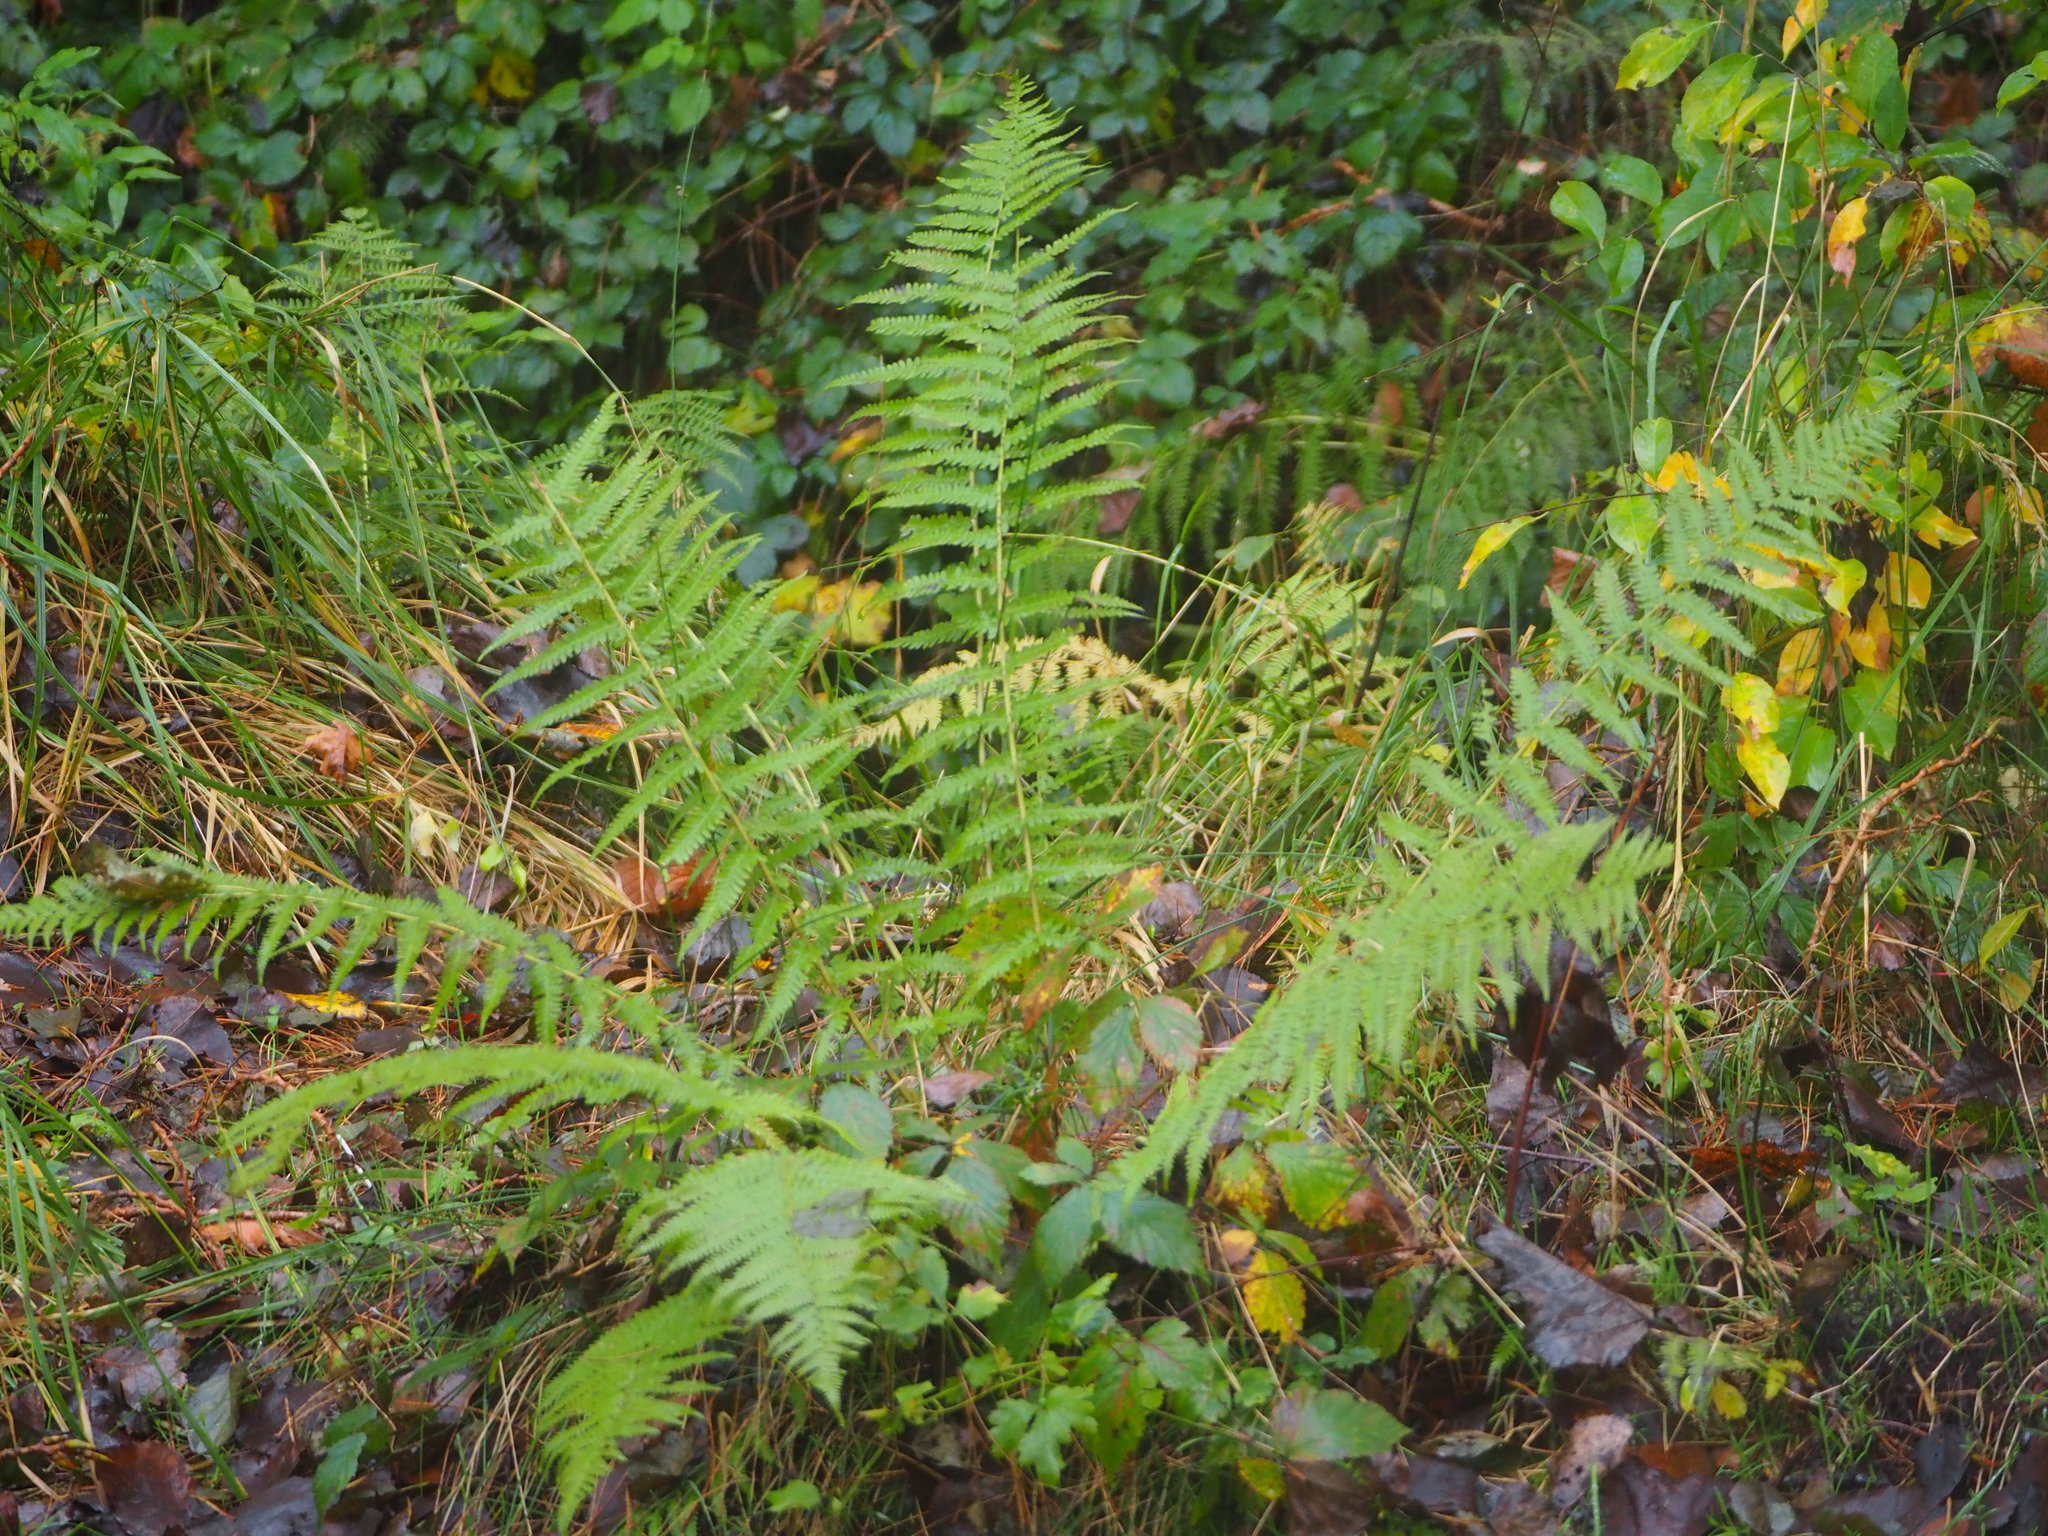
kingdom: Plantae
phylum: Tracheophyta
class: Polypodiopsida
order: Polypodiales
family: Dryopteridaceae
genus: Dryopteris
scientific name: Dryopteris filix-mas
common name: Male fern
